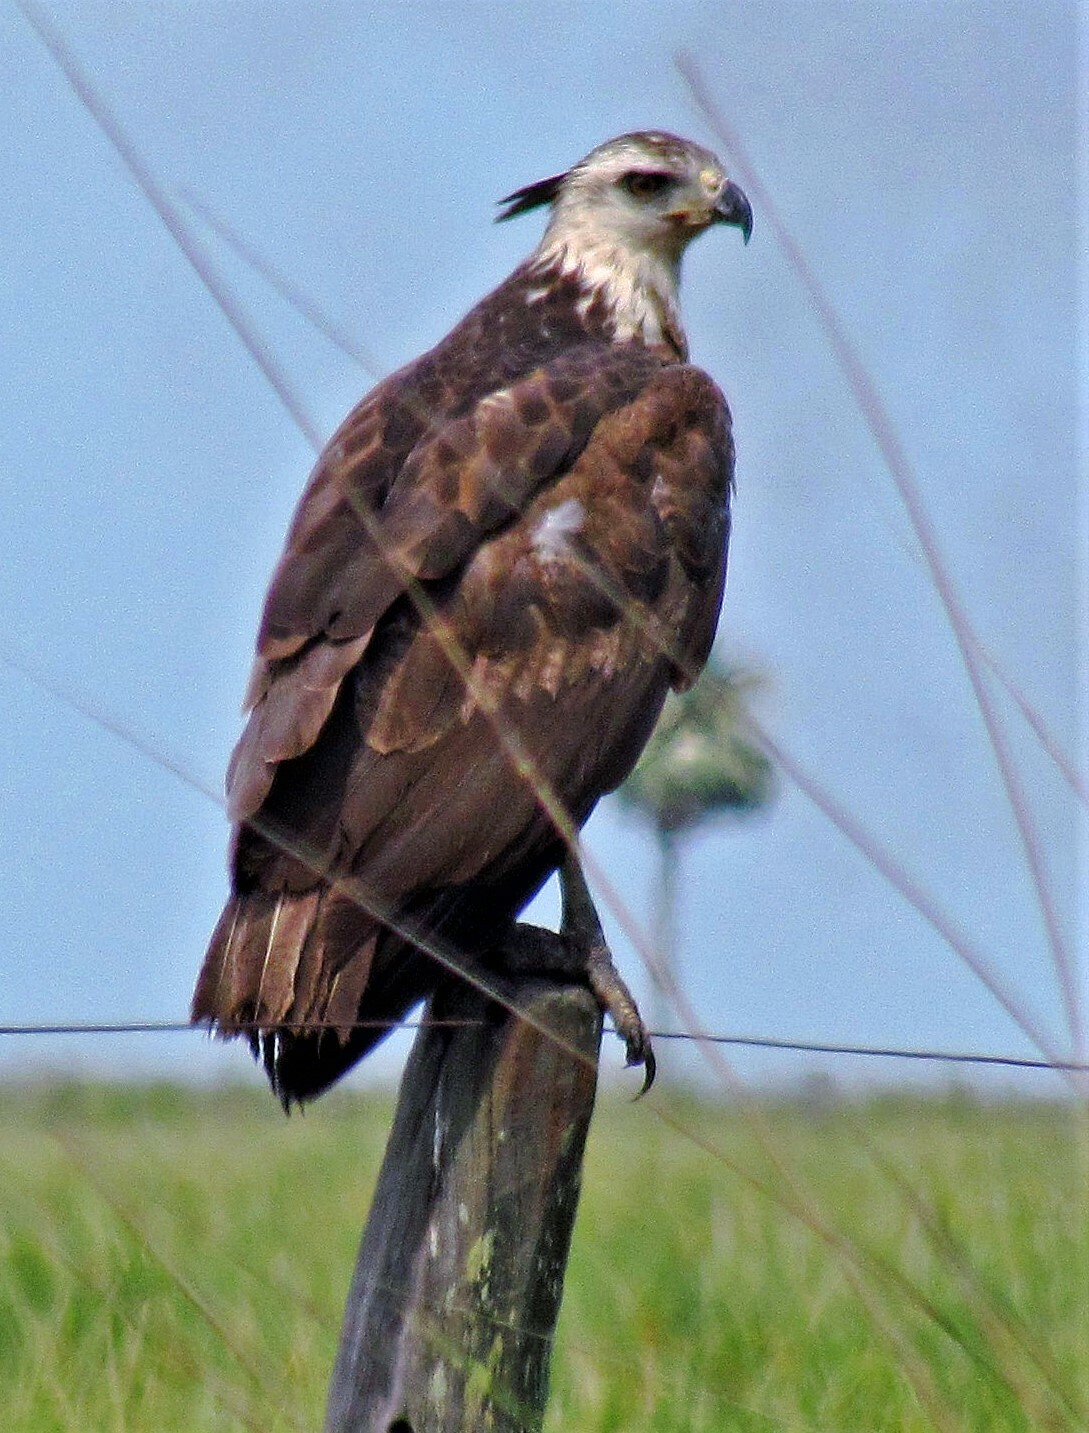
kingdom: Animalia
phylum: Chordata
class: Aves
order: Accipitriformes
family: Accipitridae
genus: Harpyhaliaetus
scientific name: Harpyhaliaetus coronatus
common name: Crowned solitary eagle
